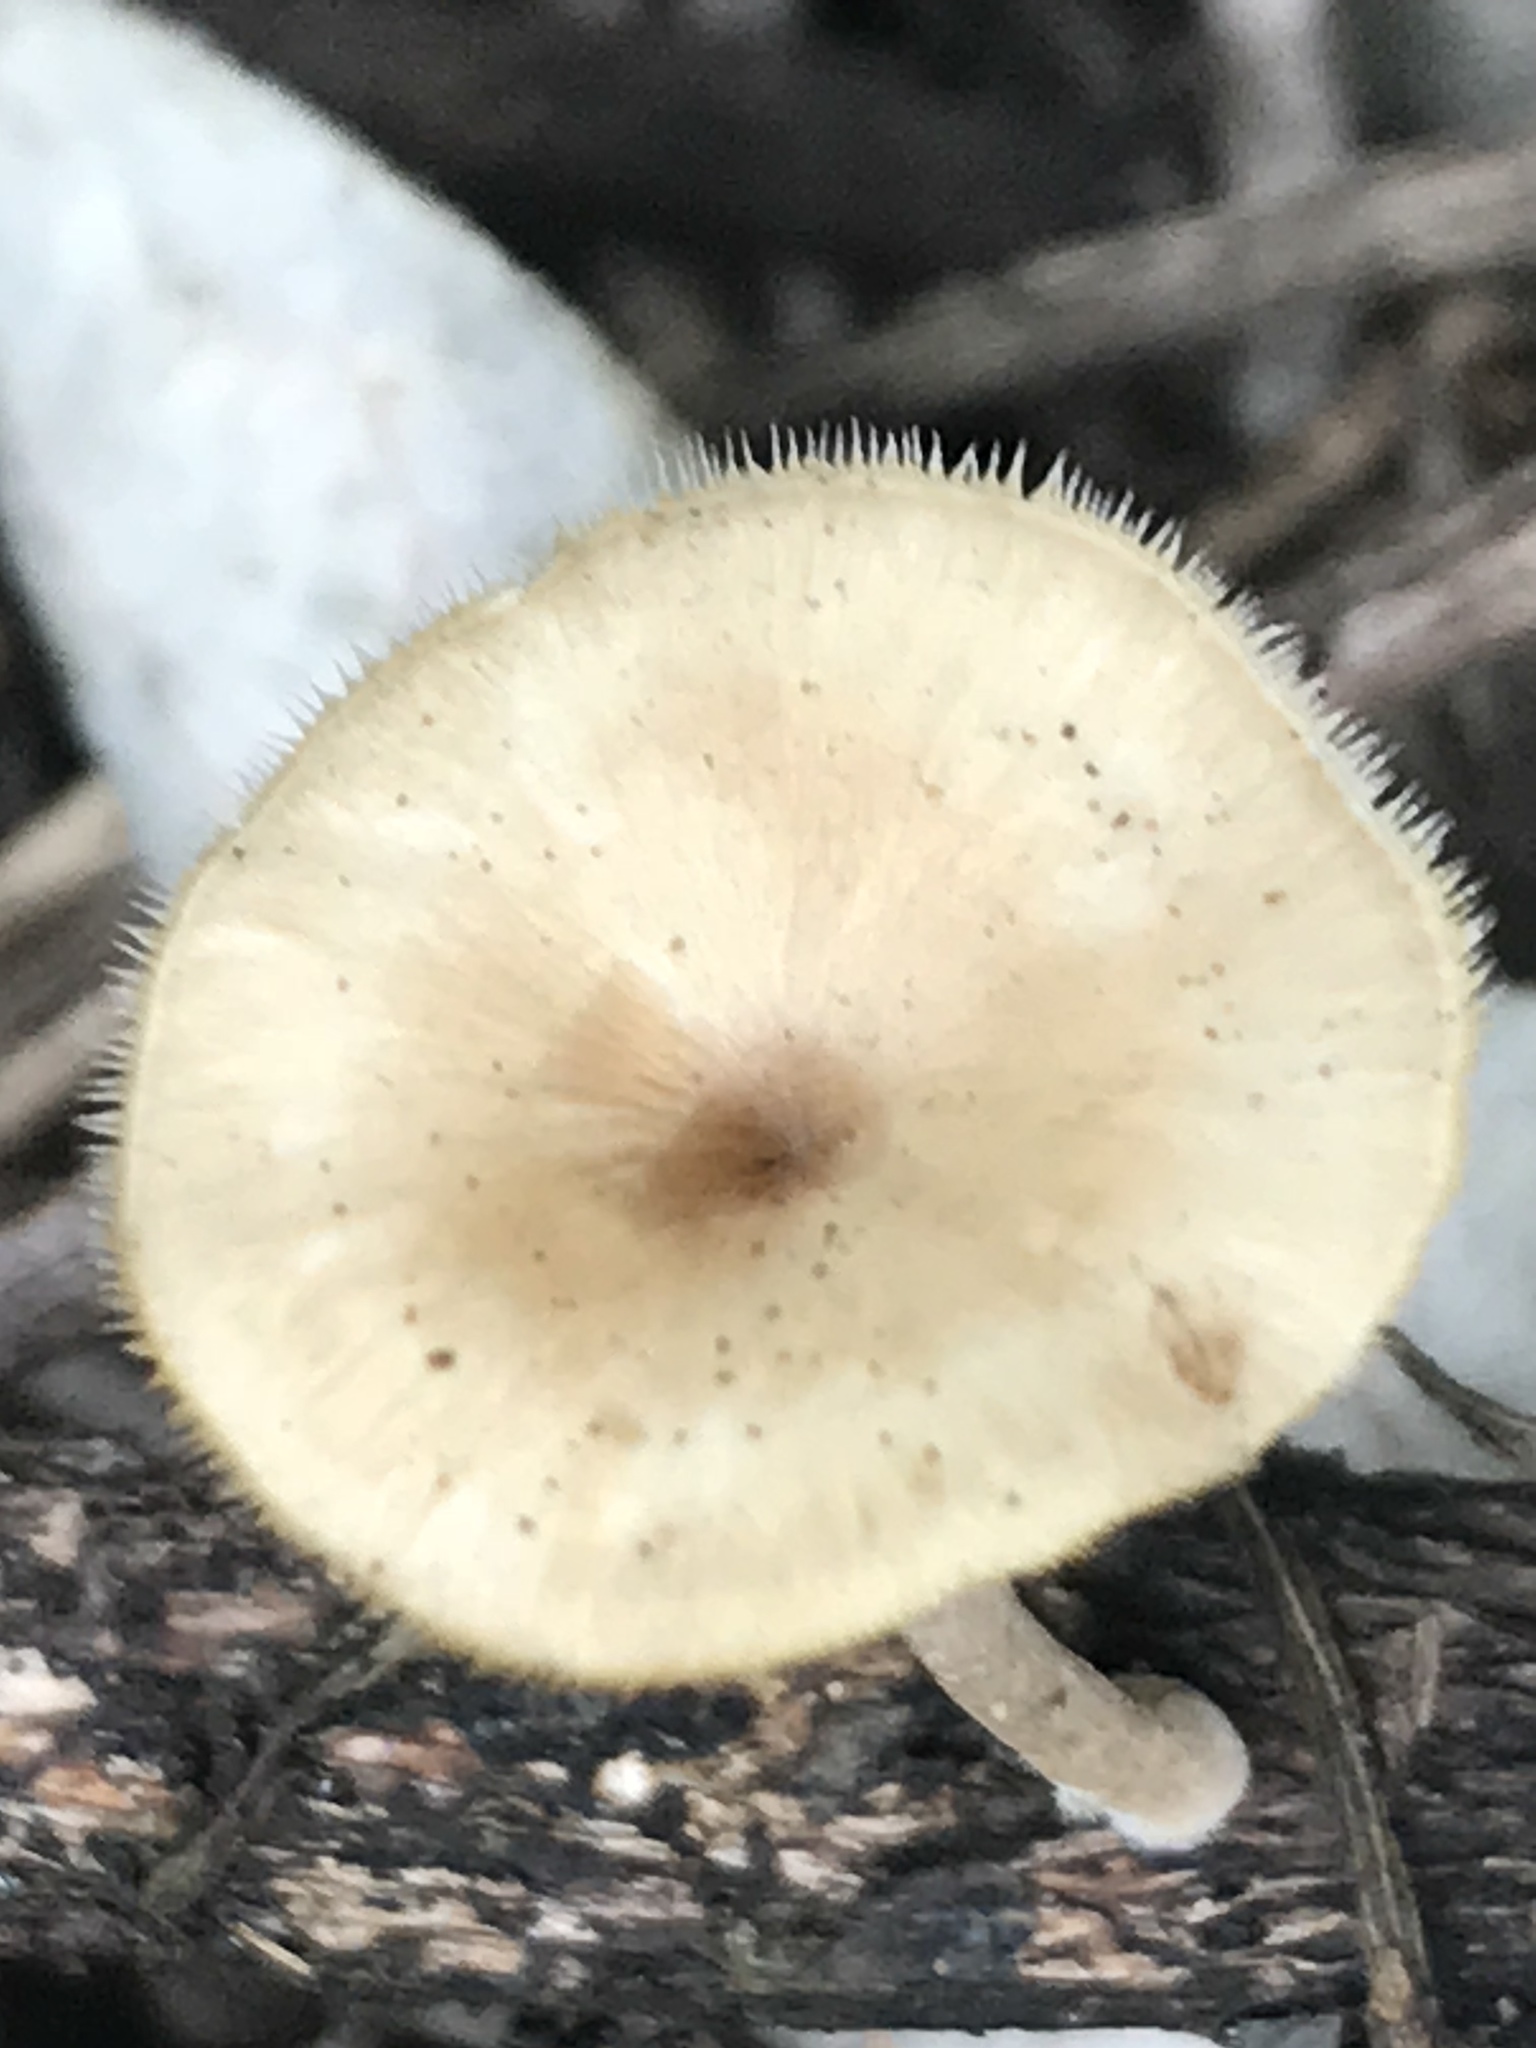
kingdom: Fungi
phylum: Basidiomycota
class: Agaricomycetes
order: Polyporales
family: Polyporaceae
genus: Lentinus
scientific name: Lentinus flexipes
